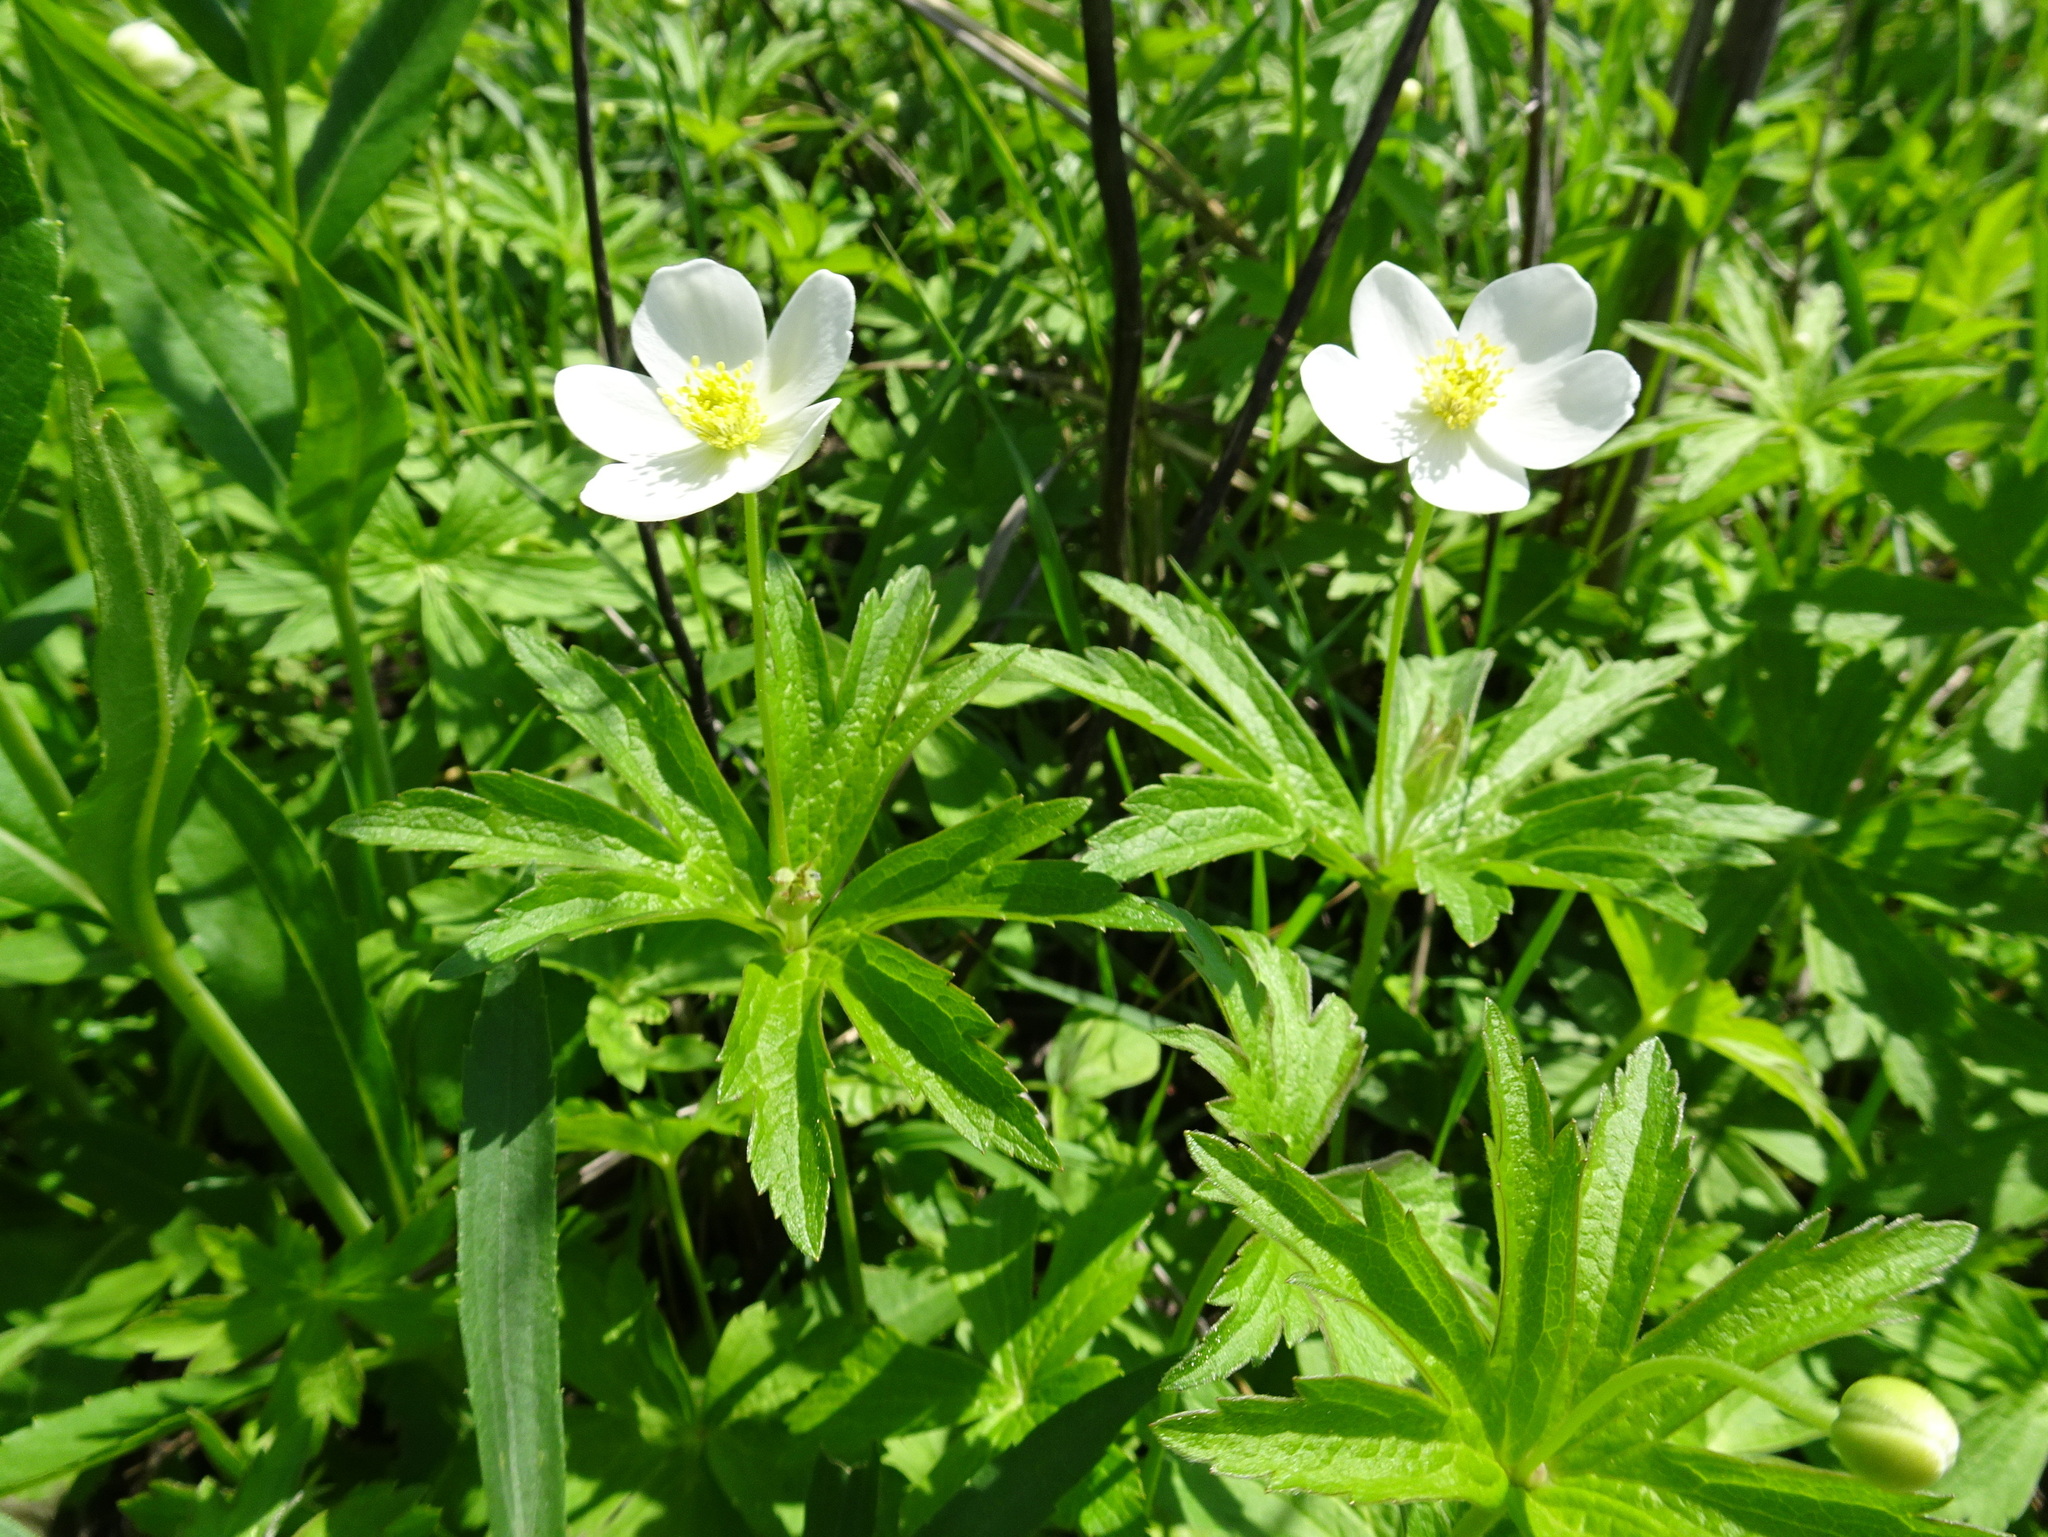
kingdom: Plantae
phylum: Tracheophyta
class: Magnoliopsida
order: Ranunculales
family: Ranunculaceae
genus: Anemonastrum
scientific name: Anemonastrum canadense
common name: Canada anemone
